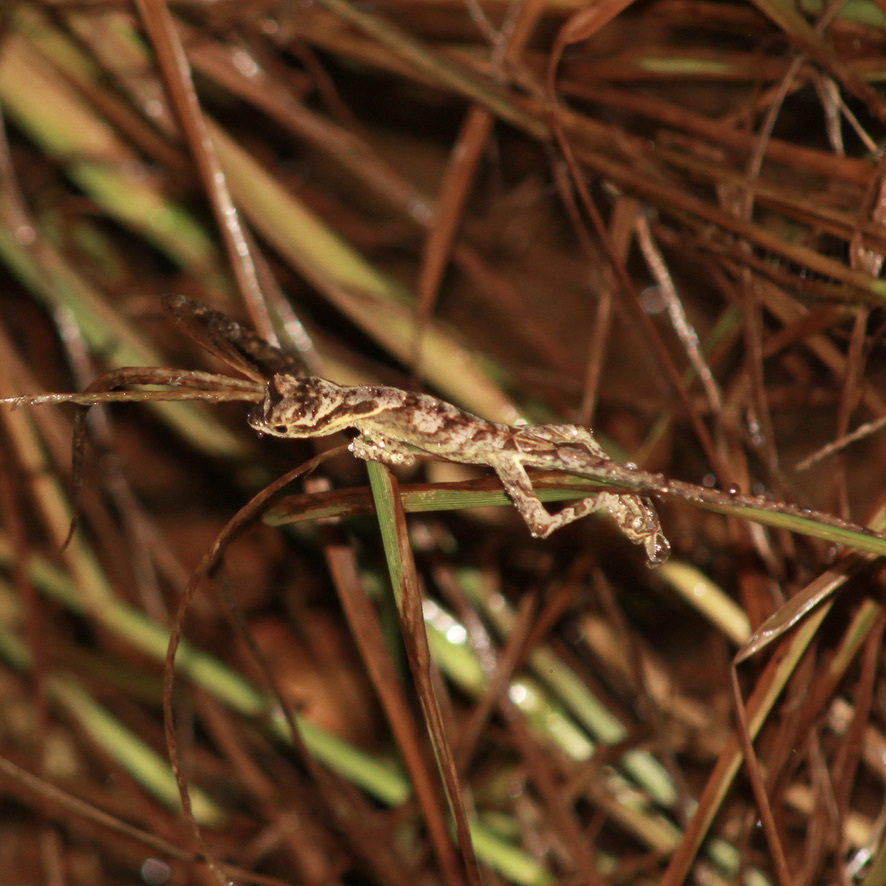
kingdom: Animalia
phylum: Chordata
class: Squamata
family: Dactyloidae
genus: Anolis
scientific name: Anolis planiceps
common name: Goldenscale anole
